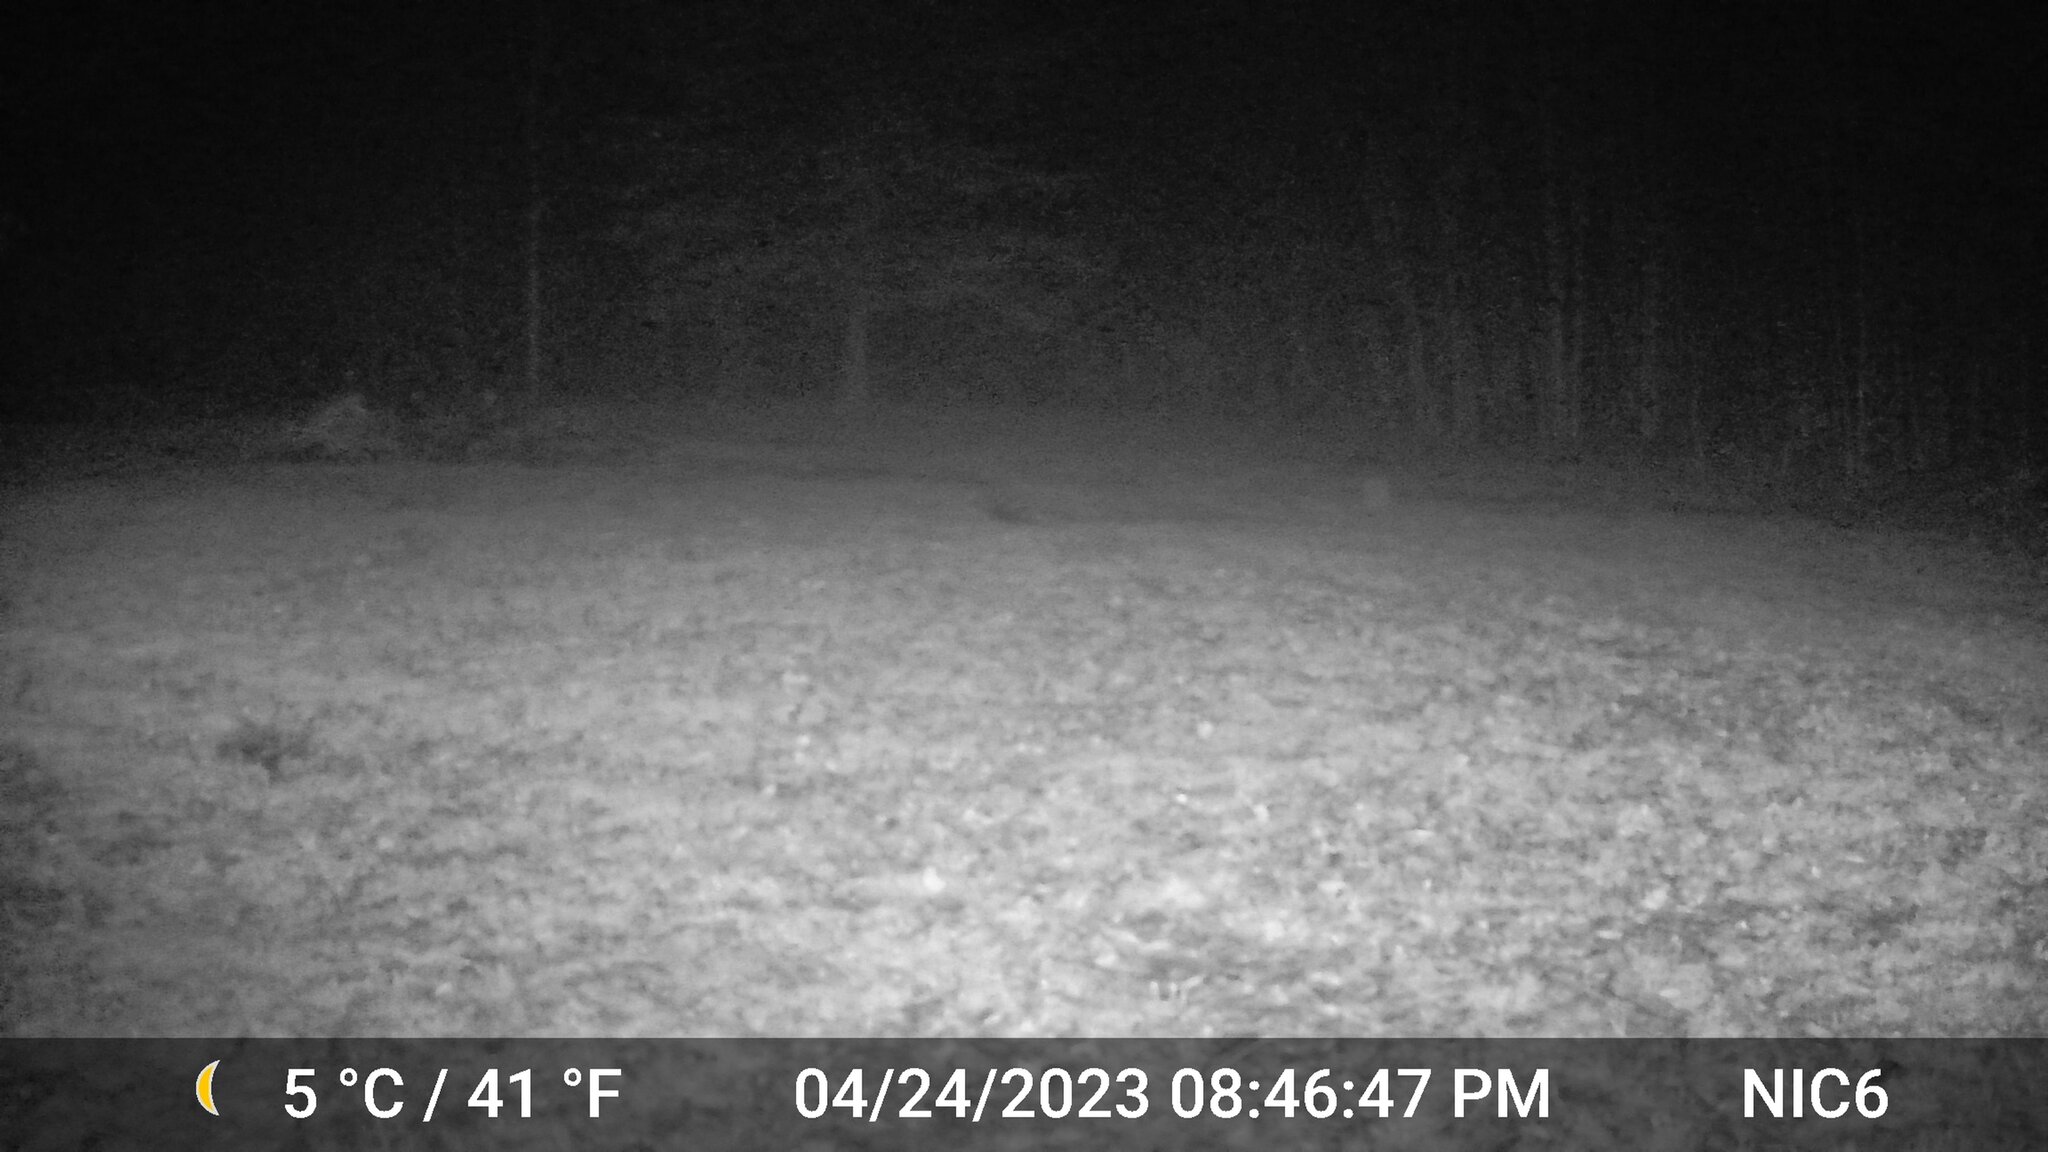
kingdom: Animalia
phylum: Chordata
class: Mammalia
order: Carnivora
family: Canidae
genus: Canis
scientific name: Canis latrans
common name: Coyote
